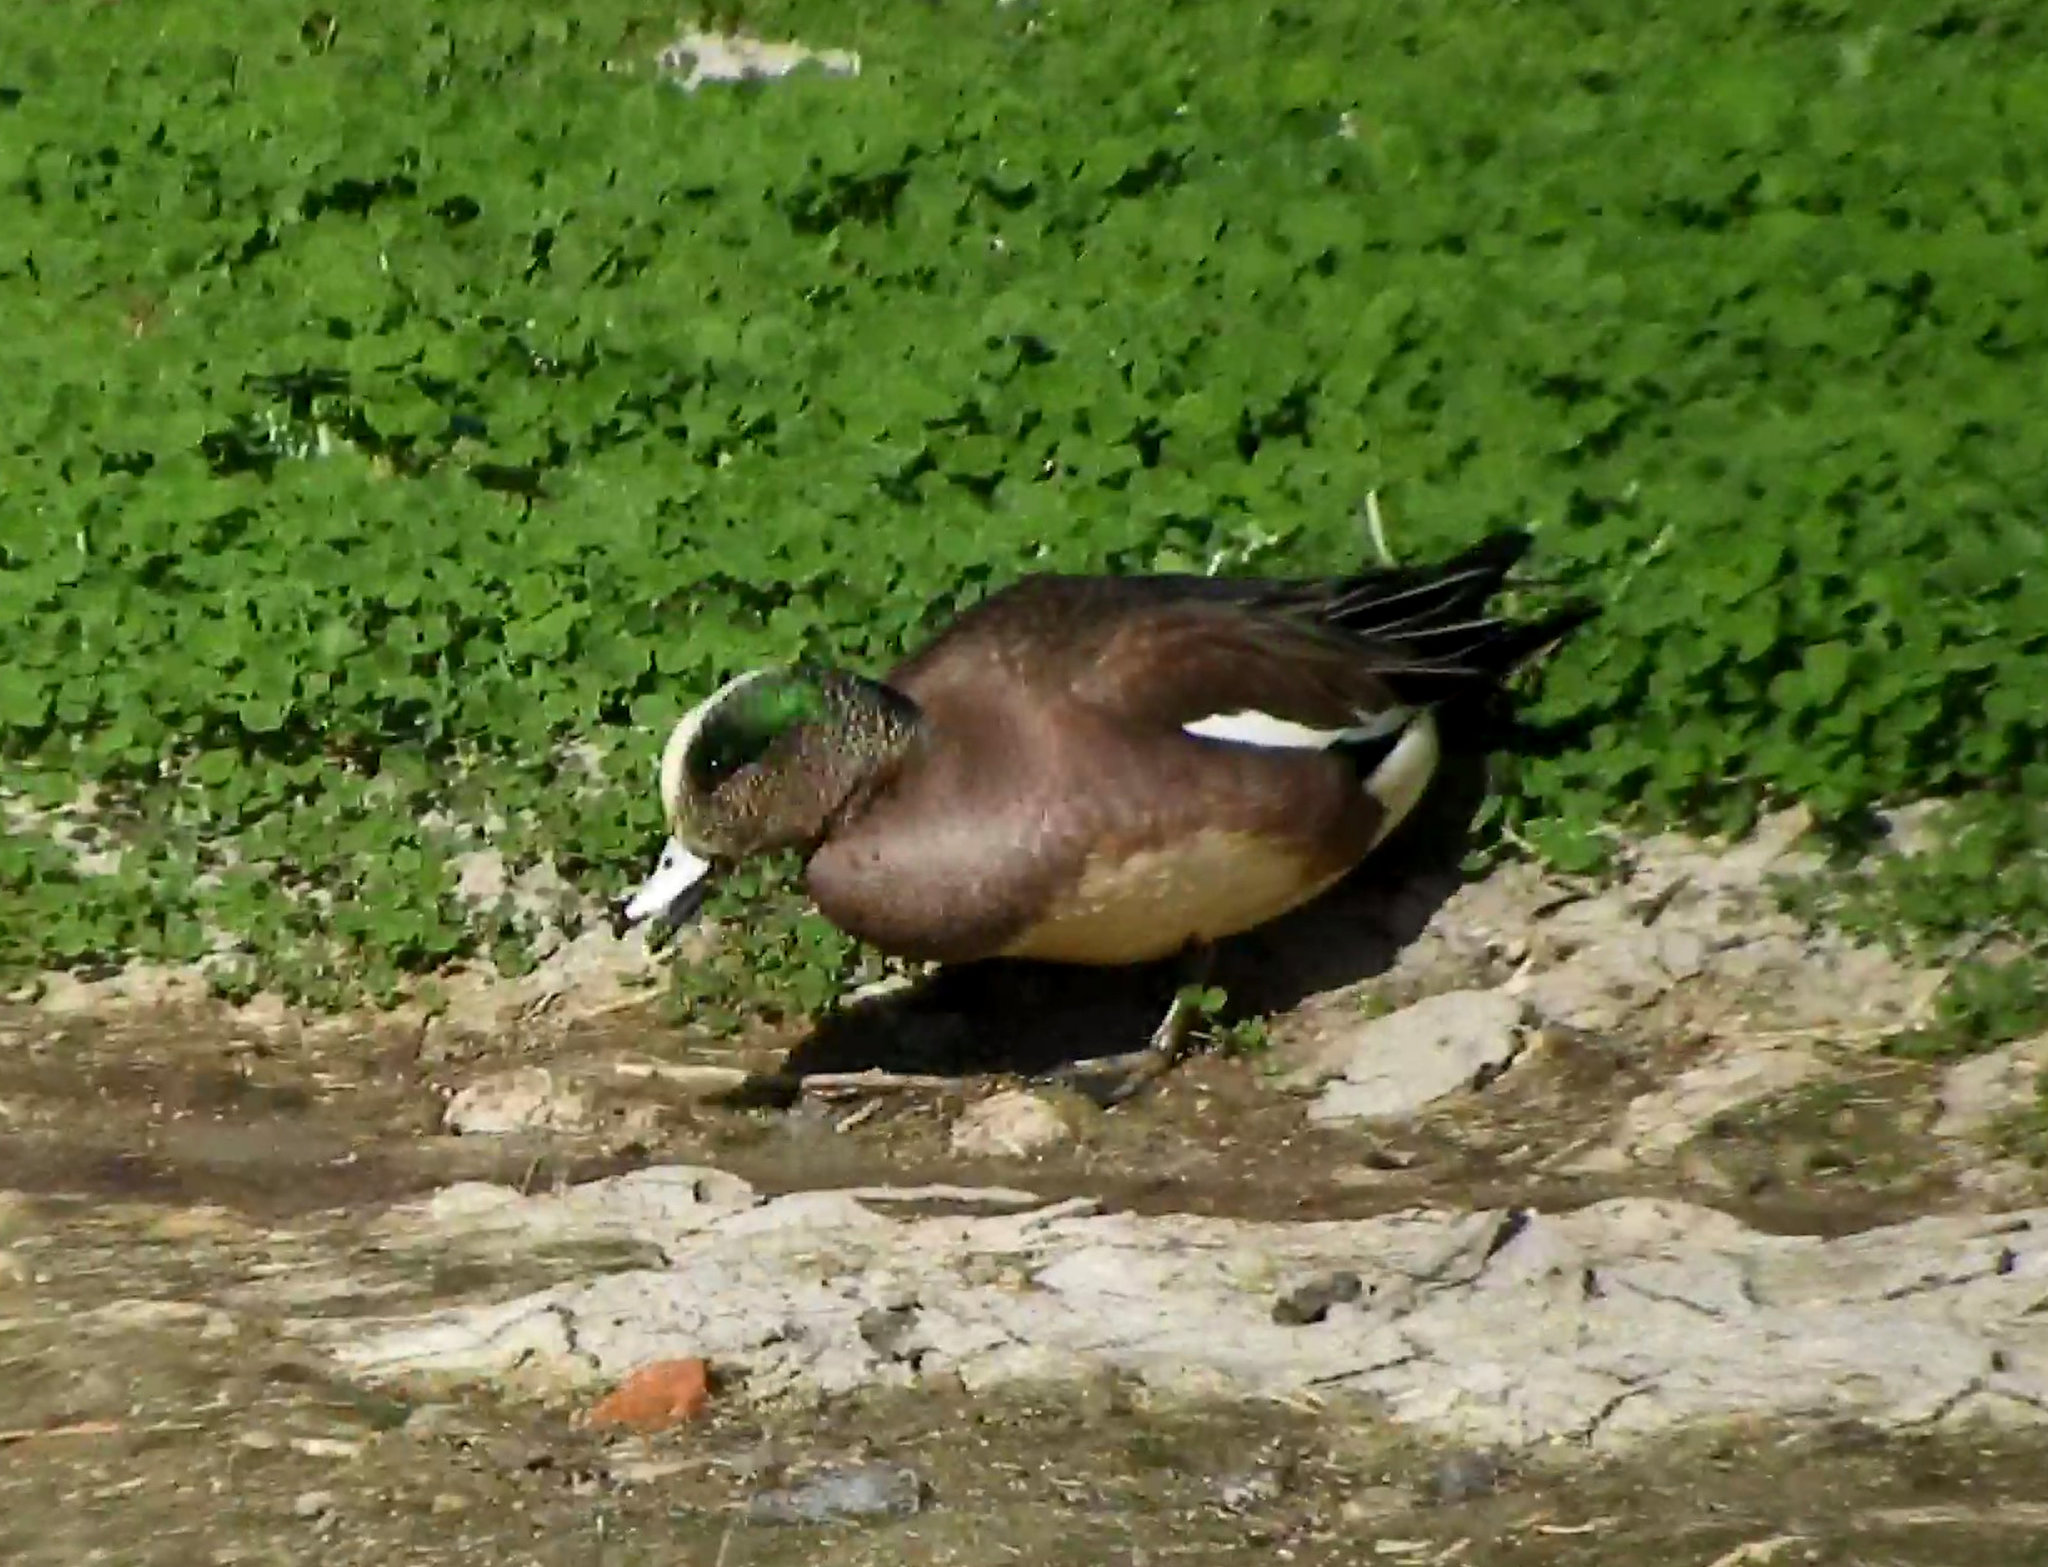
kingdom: Animalia
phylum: Chordata
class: Aves
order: Anseriformes
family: Anatidae
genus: Mareca
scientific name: Mareca americana
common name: American wigeon
